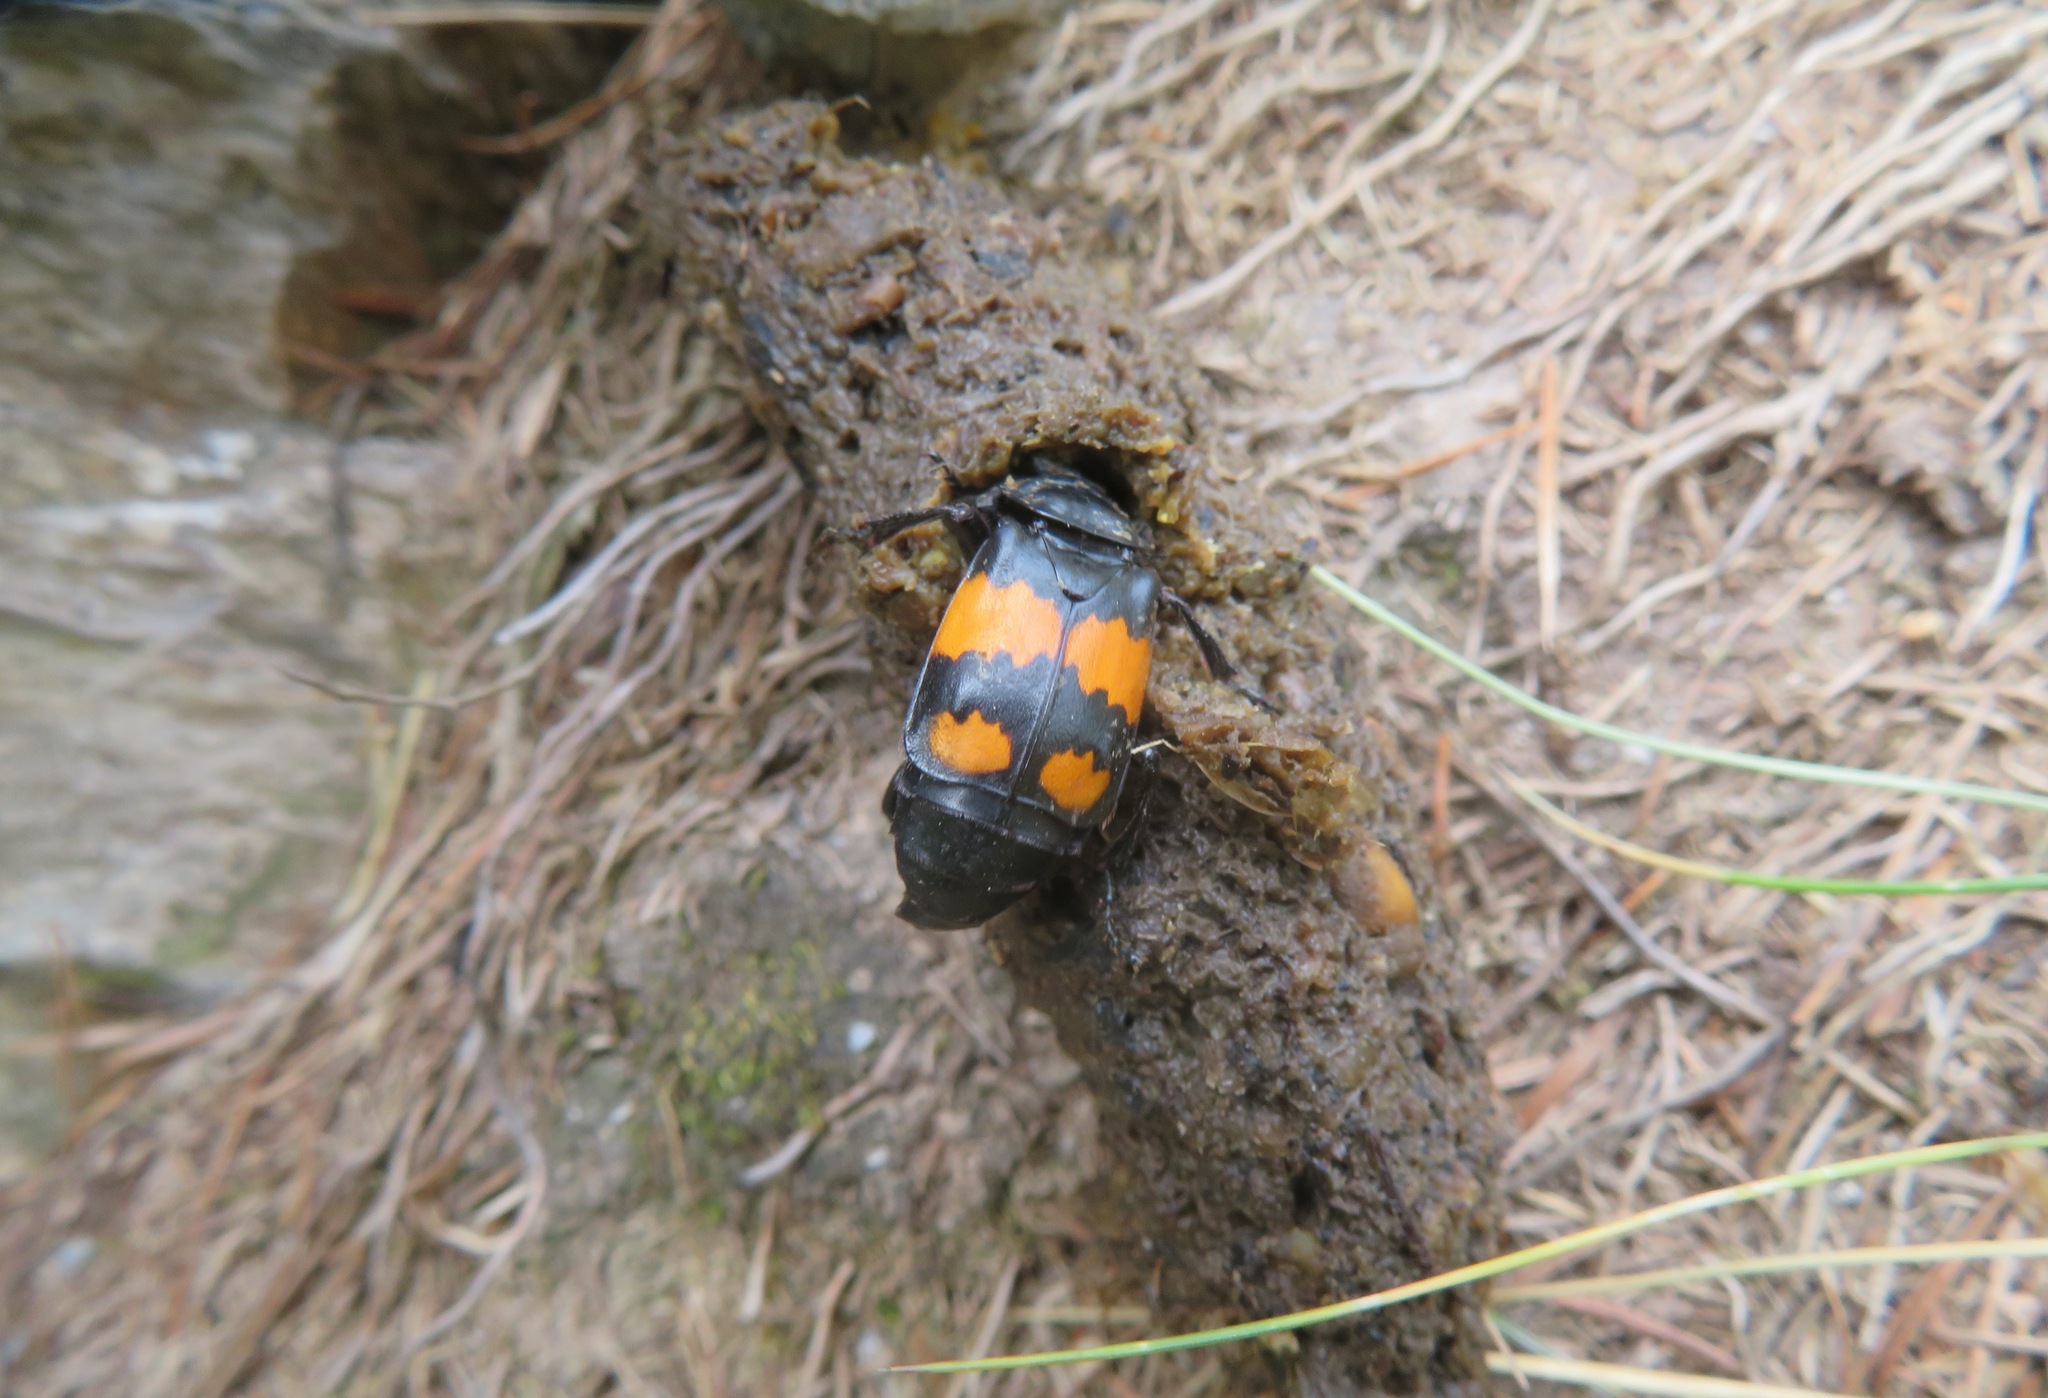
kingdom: Animalia
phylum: Arthropoda
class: Insecta
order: Coleoptera
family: Staphylinidae
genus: Nicrophorus
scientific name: Nicrophorus vespilloides
